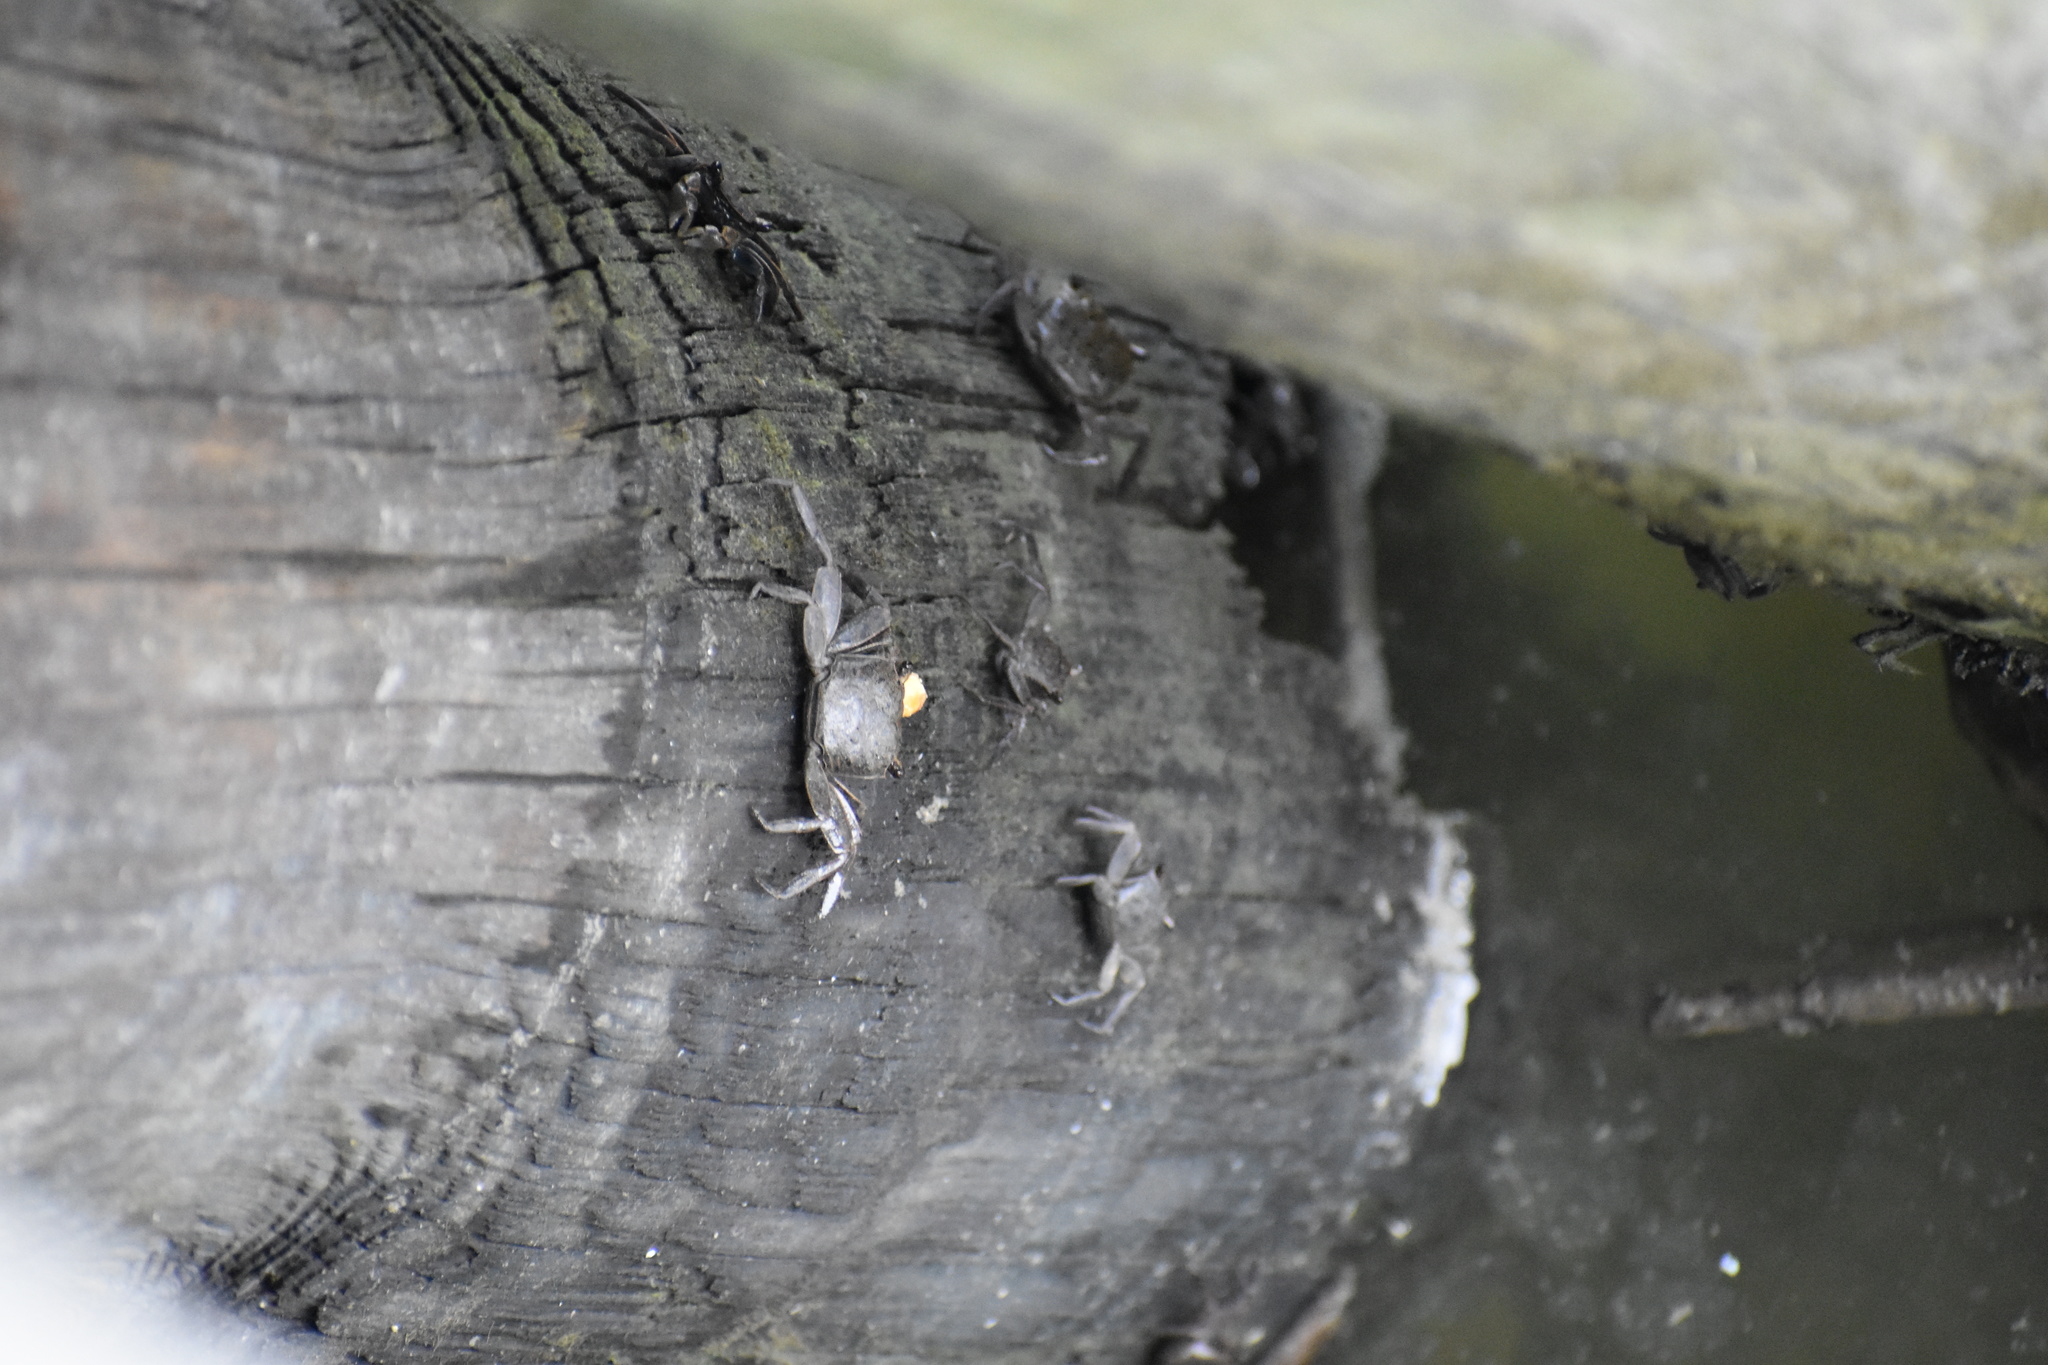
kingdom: Animalia
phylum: Arthropoda
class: Malacostraca
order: Decapoda
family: Sesarmidae
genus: Armases
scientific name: Armases cinereum
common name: Squareback marsh crab
